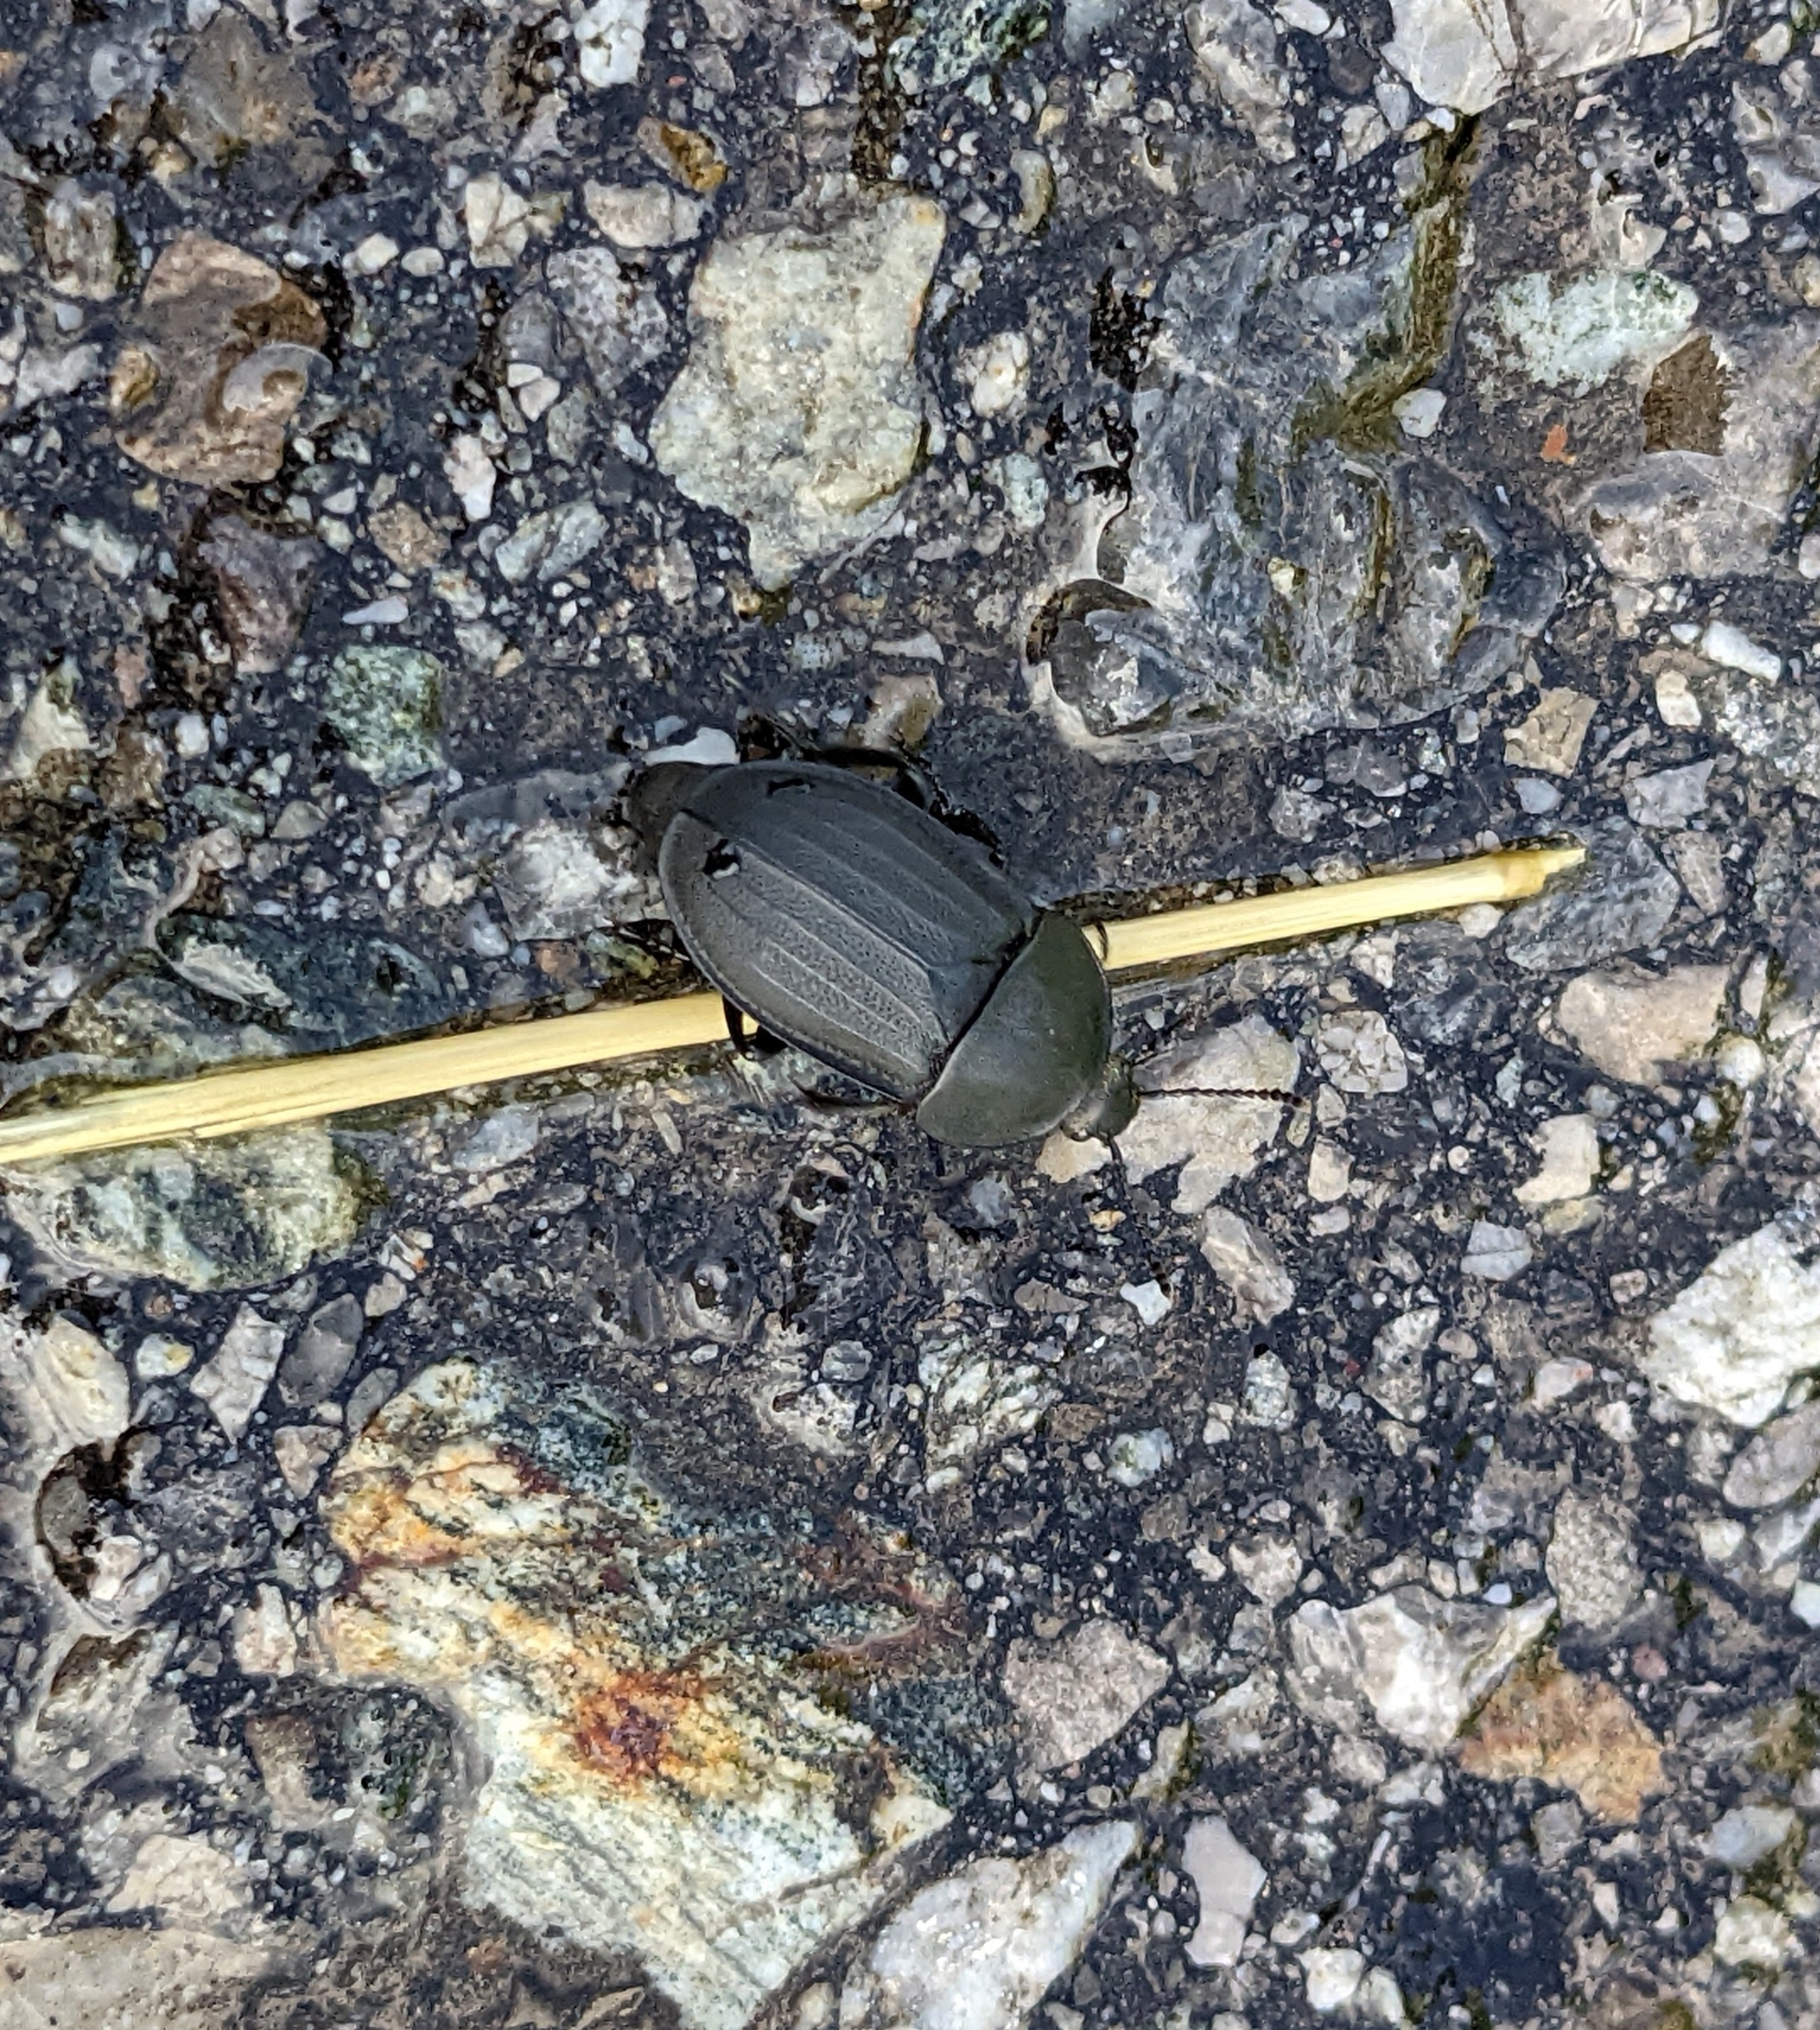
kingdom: Animalia
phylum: Arthropoda
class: Insecta
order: Coleoptera
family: Staphylinidae
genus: Silpha
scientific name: Silpha obscura
